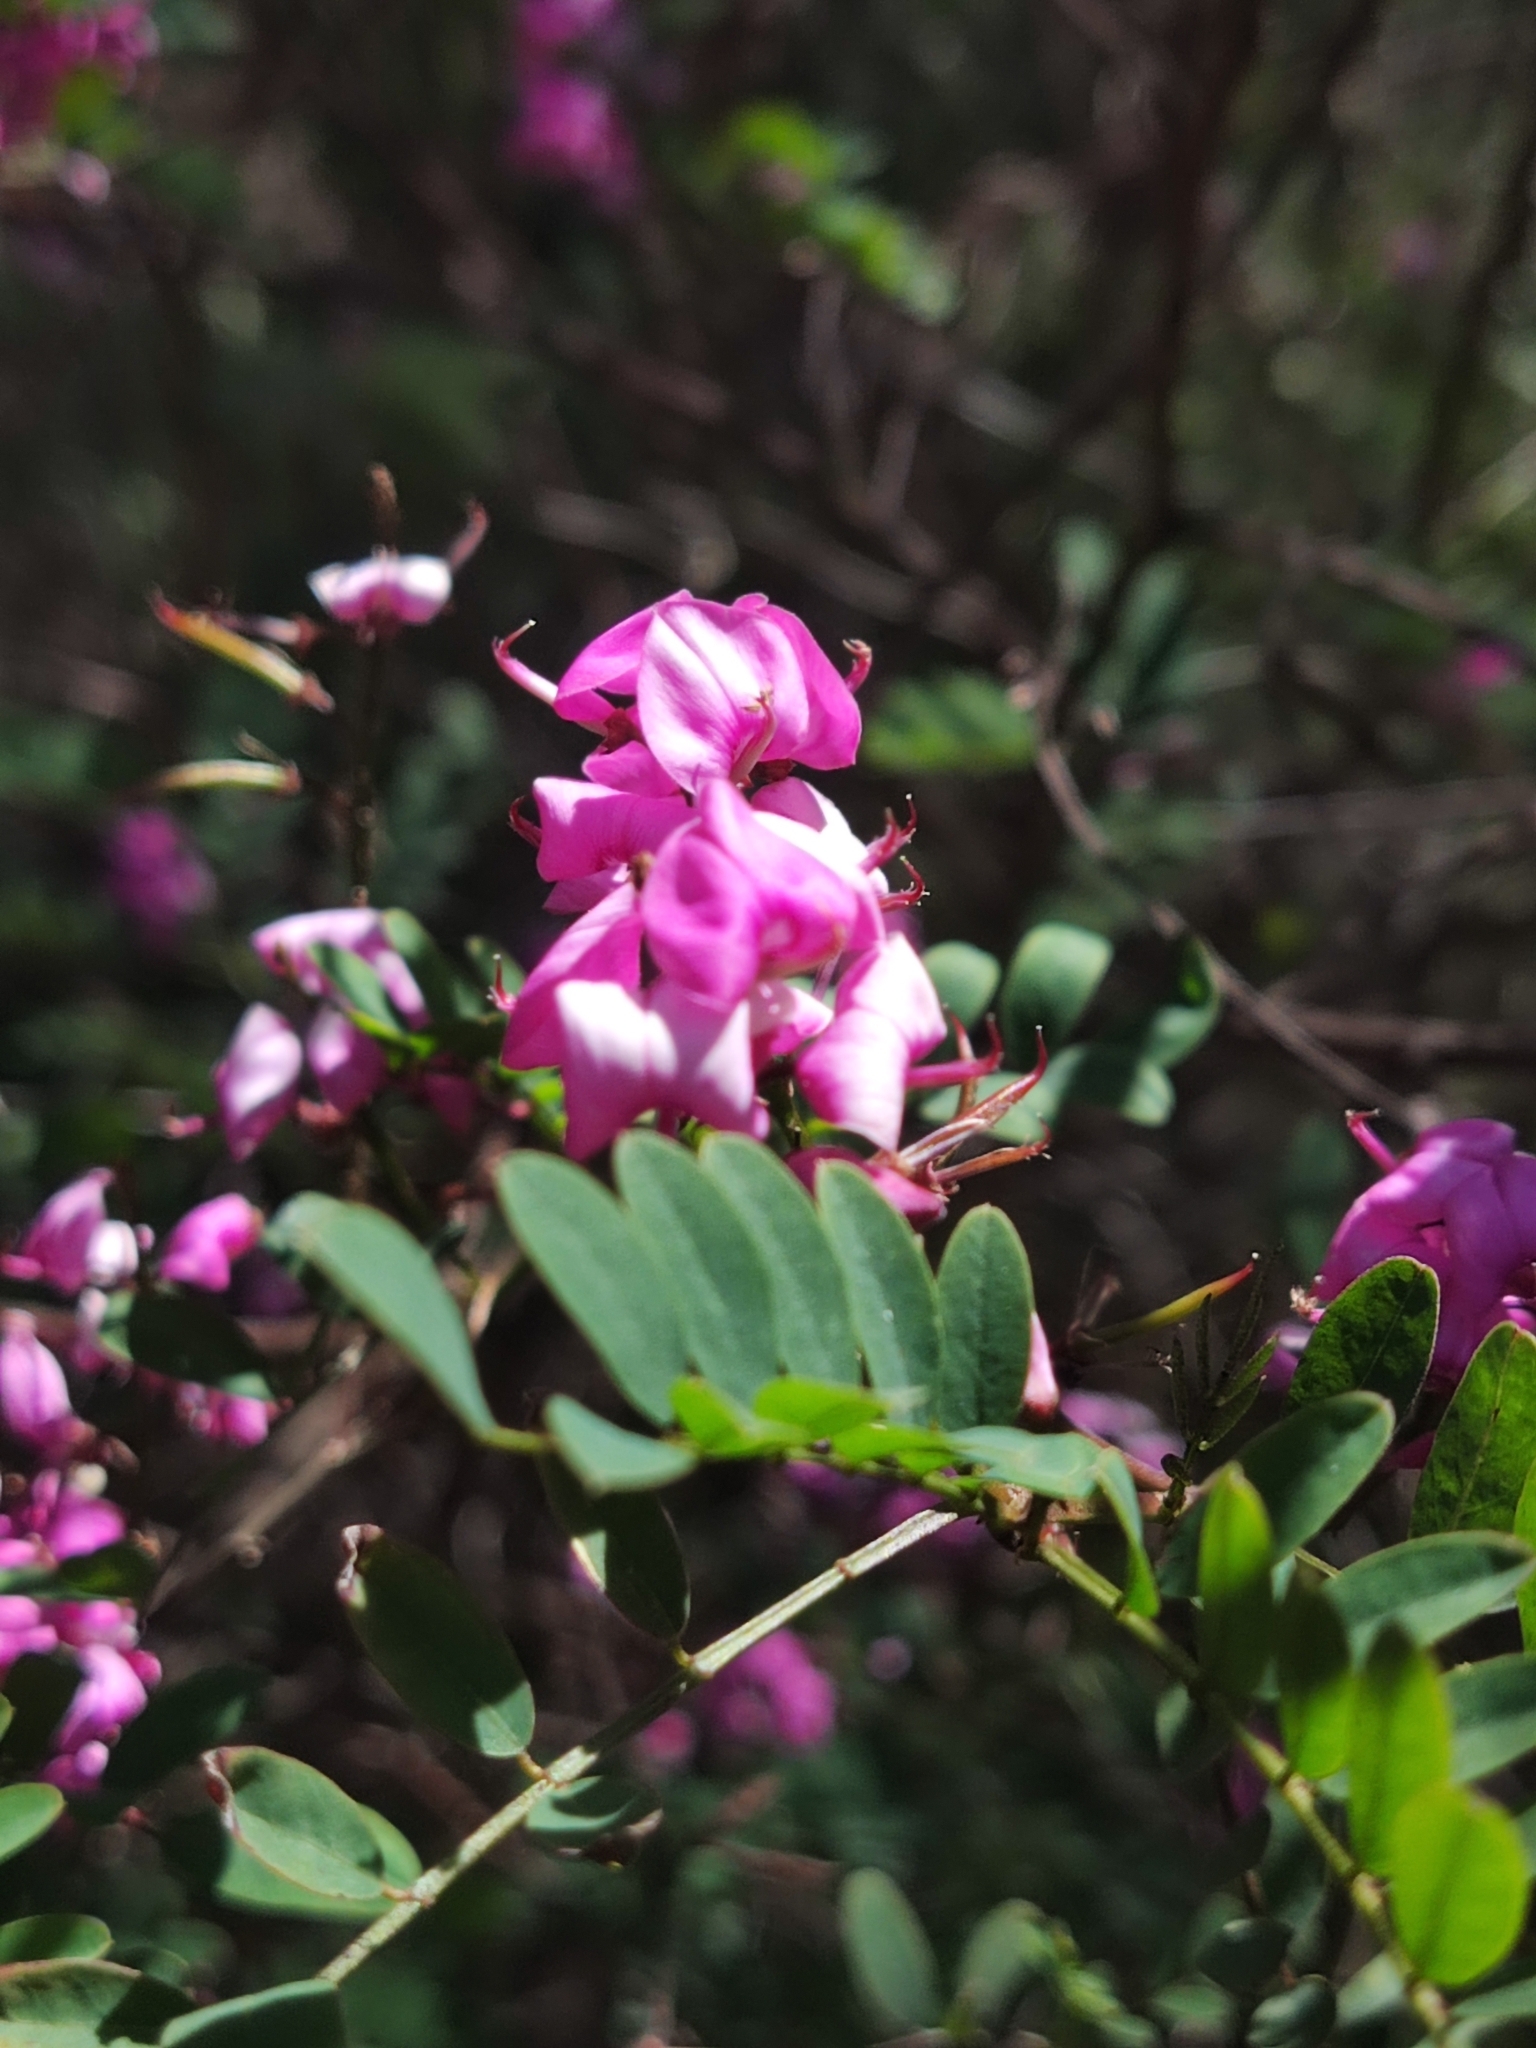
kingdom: Plantae
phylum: Tracheophyta
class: Magnoliopsida
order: Fabales
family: Fabaceae
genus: Indigofera
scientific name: Indigofera australis
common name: Australian indigo
